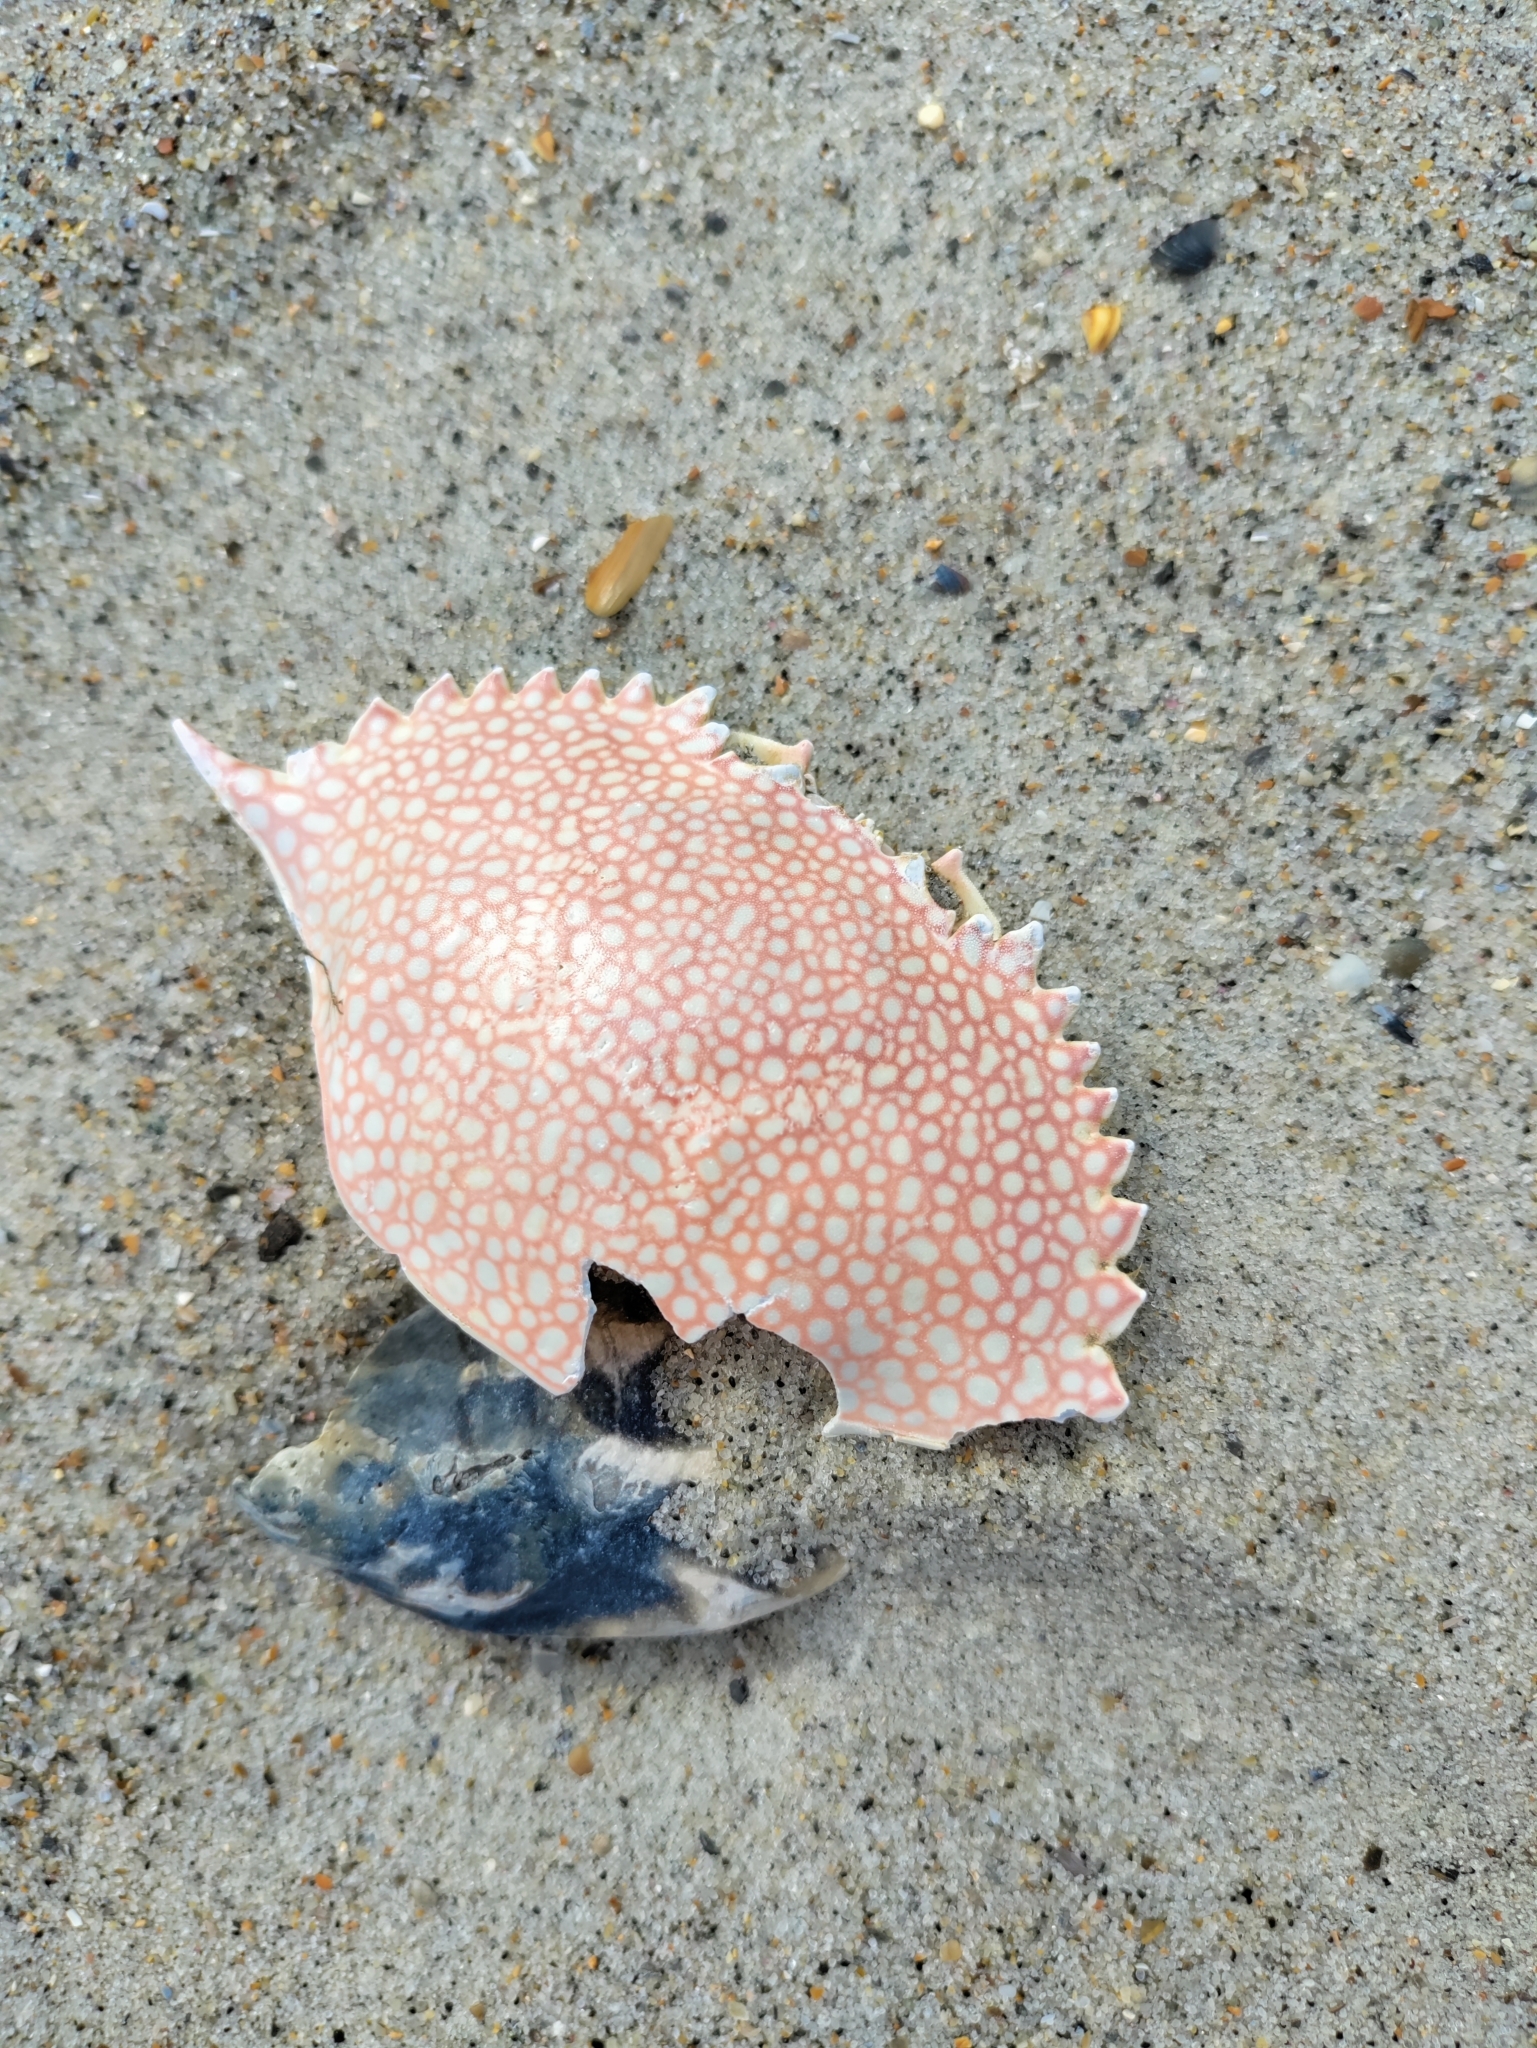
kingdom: Animalia
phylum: Arthropoda
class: Malacostraca
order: Decapoda
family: Portunidae
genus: Arenaeus
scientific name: Arenaeus cribrarius
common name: Speckled crab
